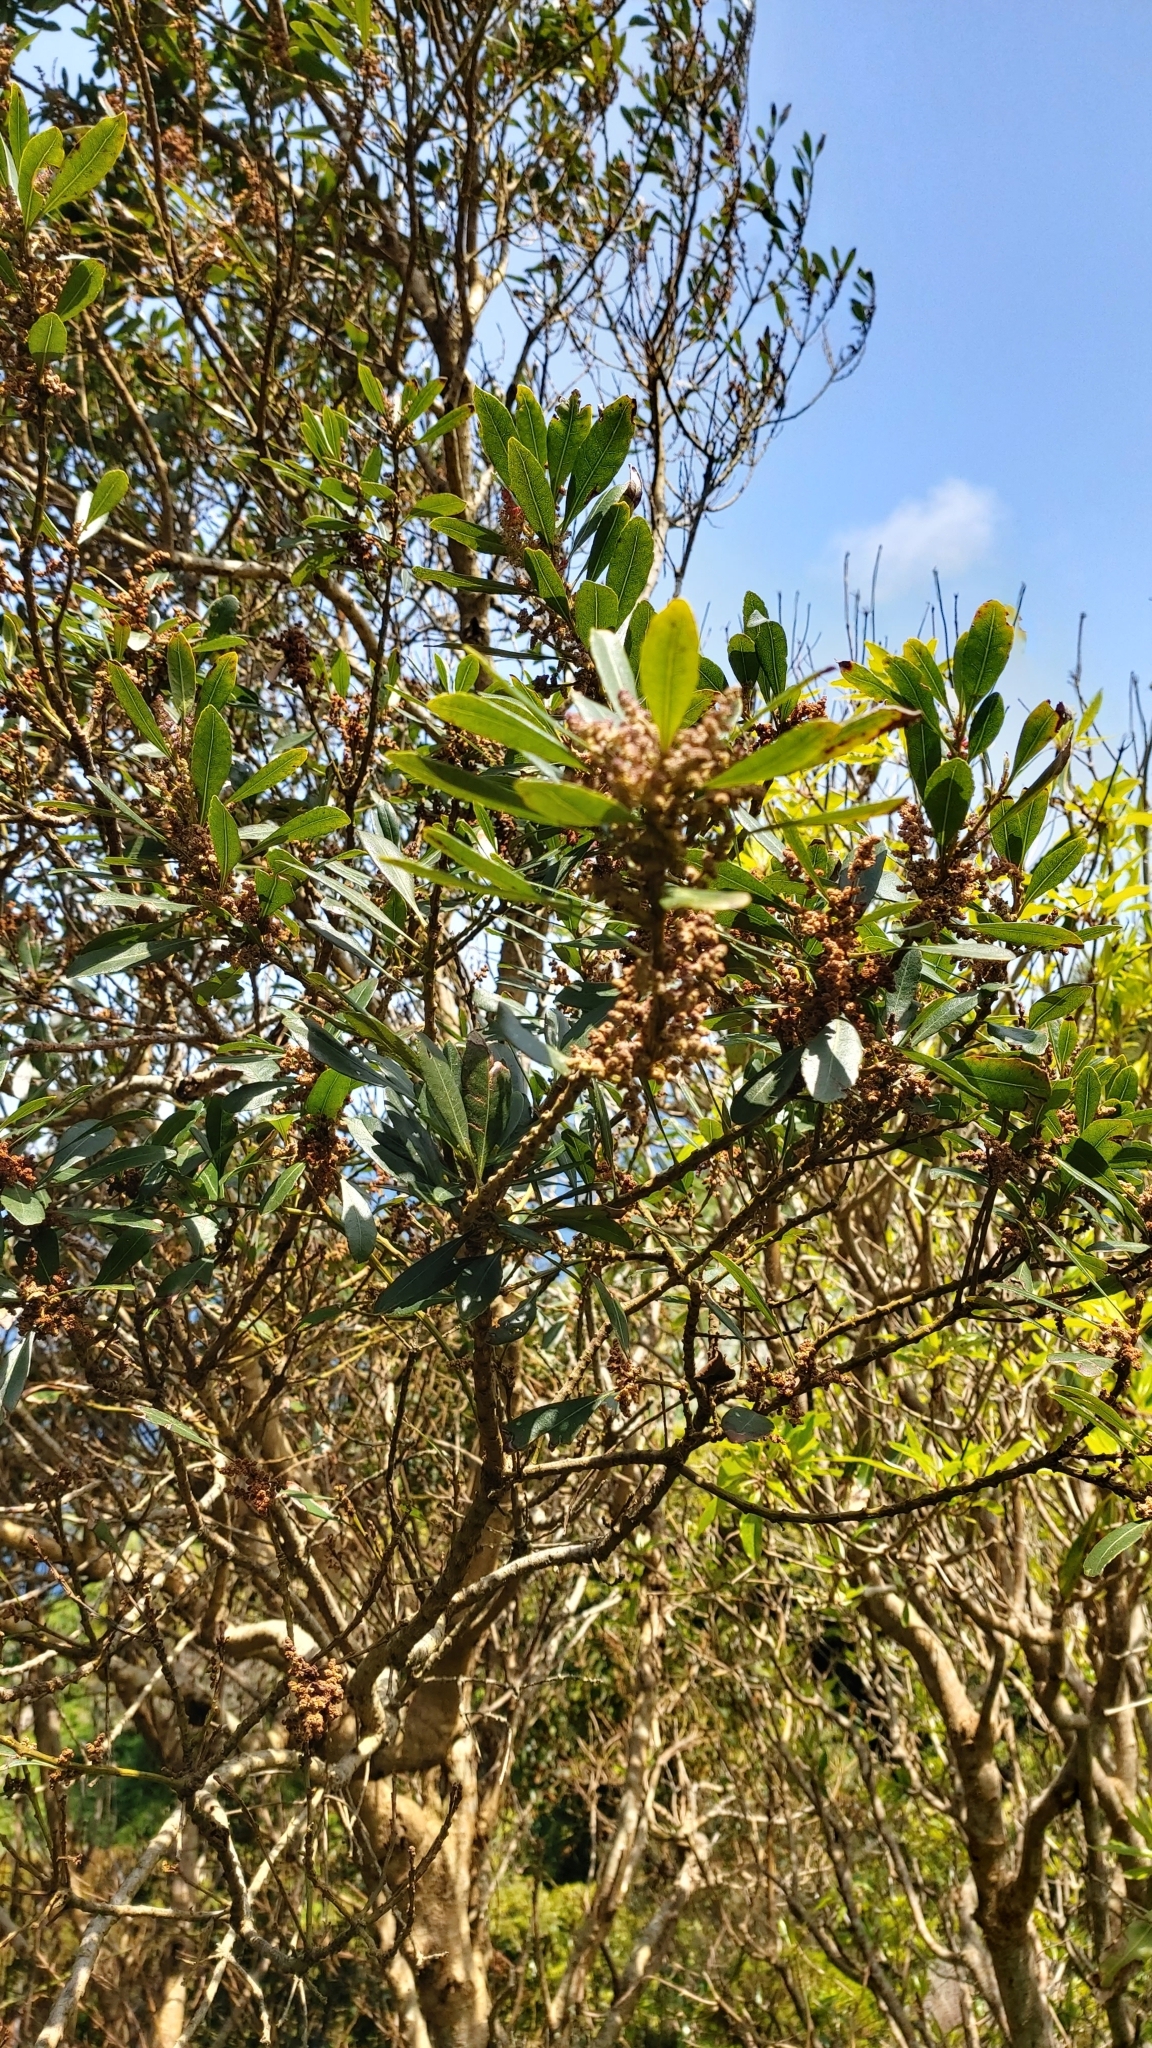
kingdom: Plantae
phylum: Tracheophyta
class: Magnoliopsida
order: Fagales
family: Myricaceae
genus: Morella
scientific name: Morella faya
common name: Firetree
